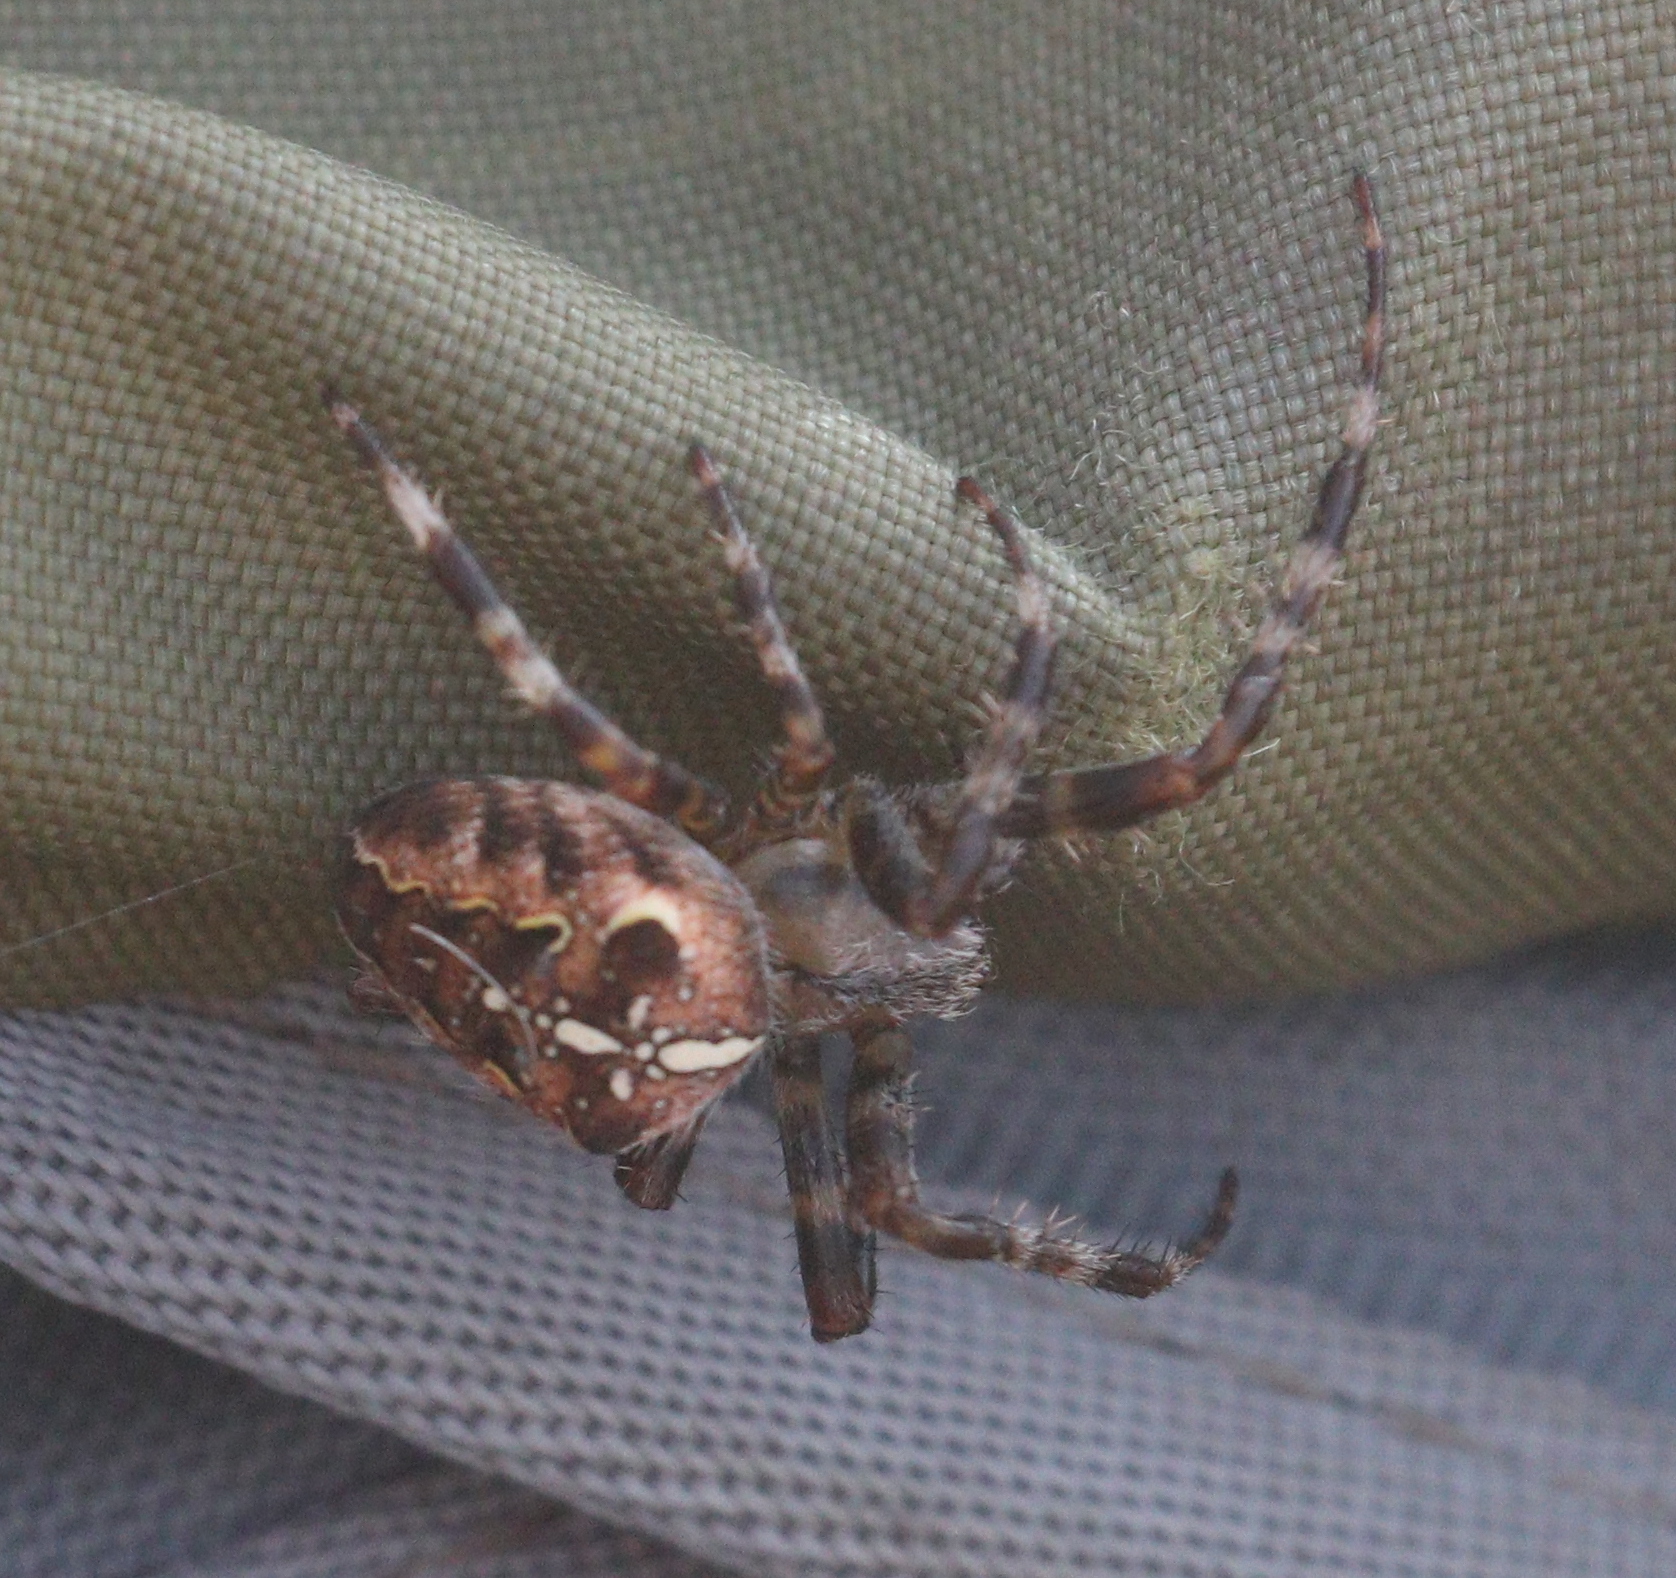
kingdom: Animalia
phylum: Arthropoda
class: Arachnida
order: Araneae
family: Araneidae
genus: Araneus
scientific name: Araneus diadematus
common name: Cross orbweaver
